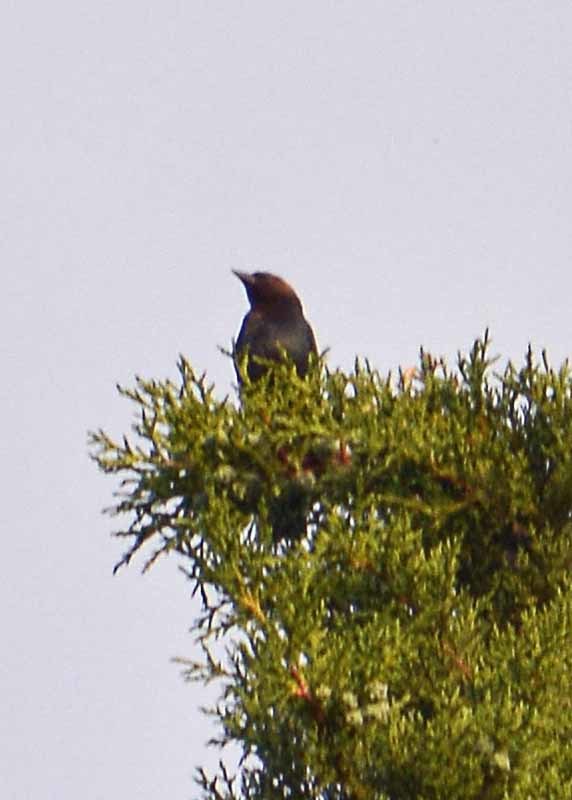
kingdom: Animalia
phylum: Chordata
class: Aves
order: Passeriformes
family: Icteridae
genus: Molothrus
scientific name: Molothrus ater
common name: Brown-headed cowbird
